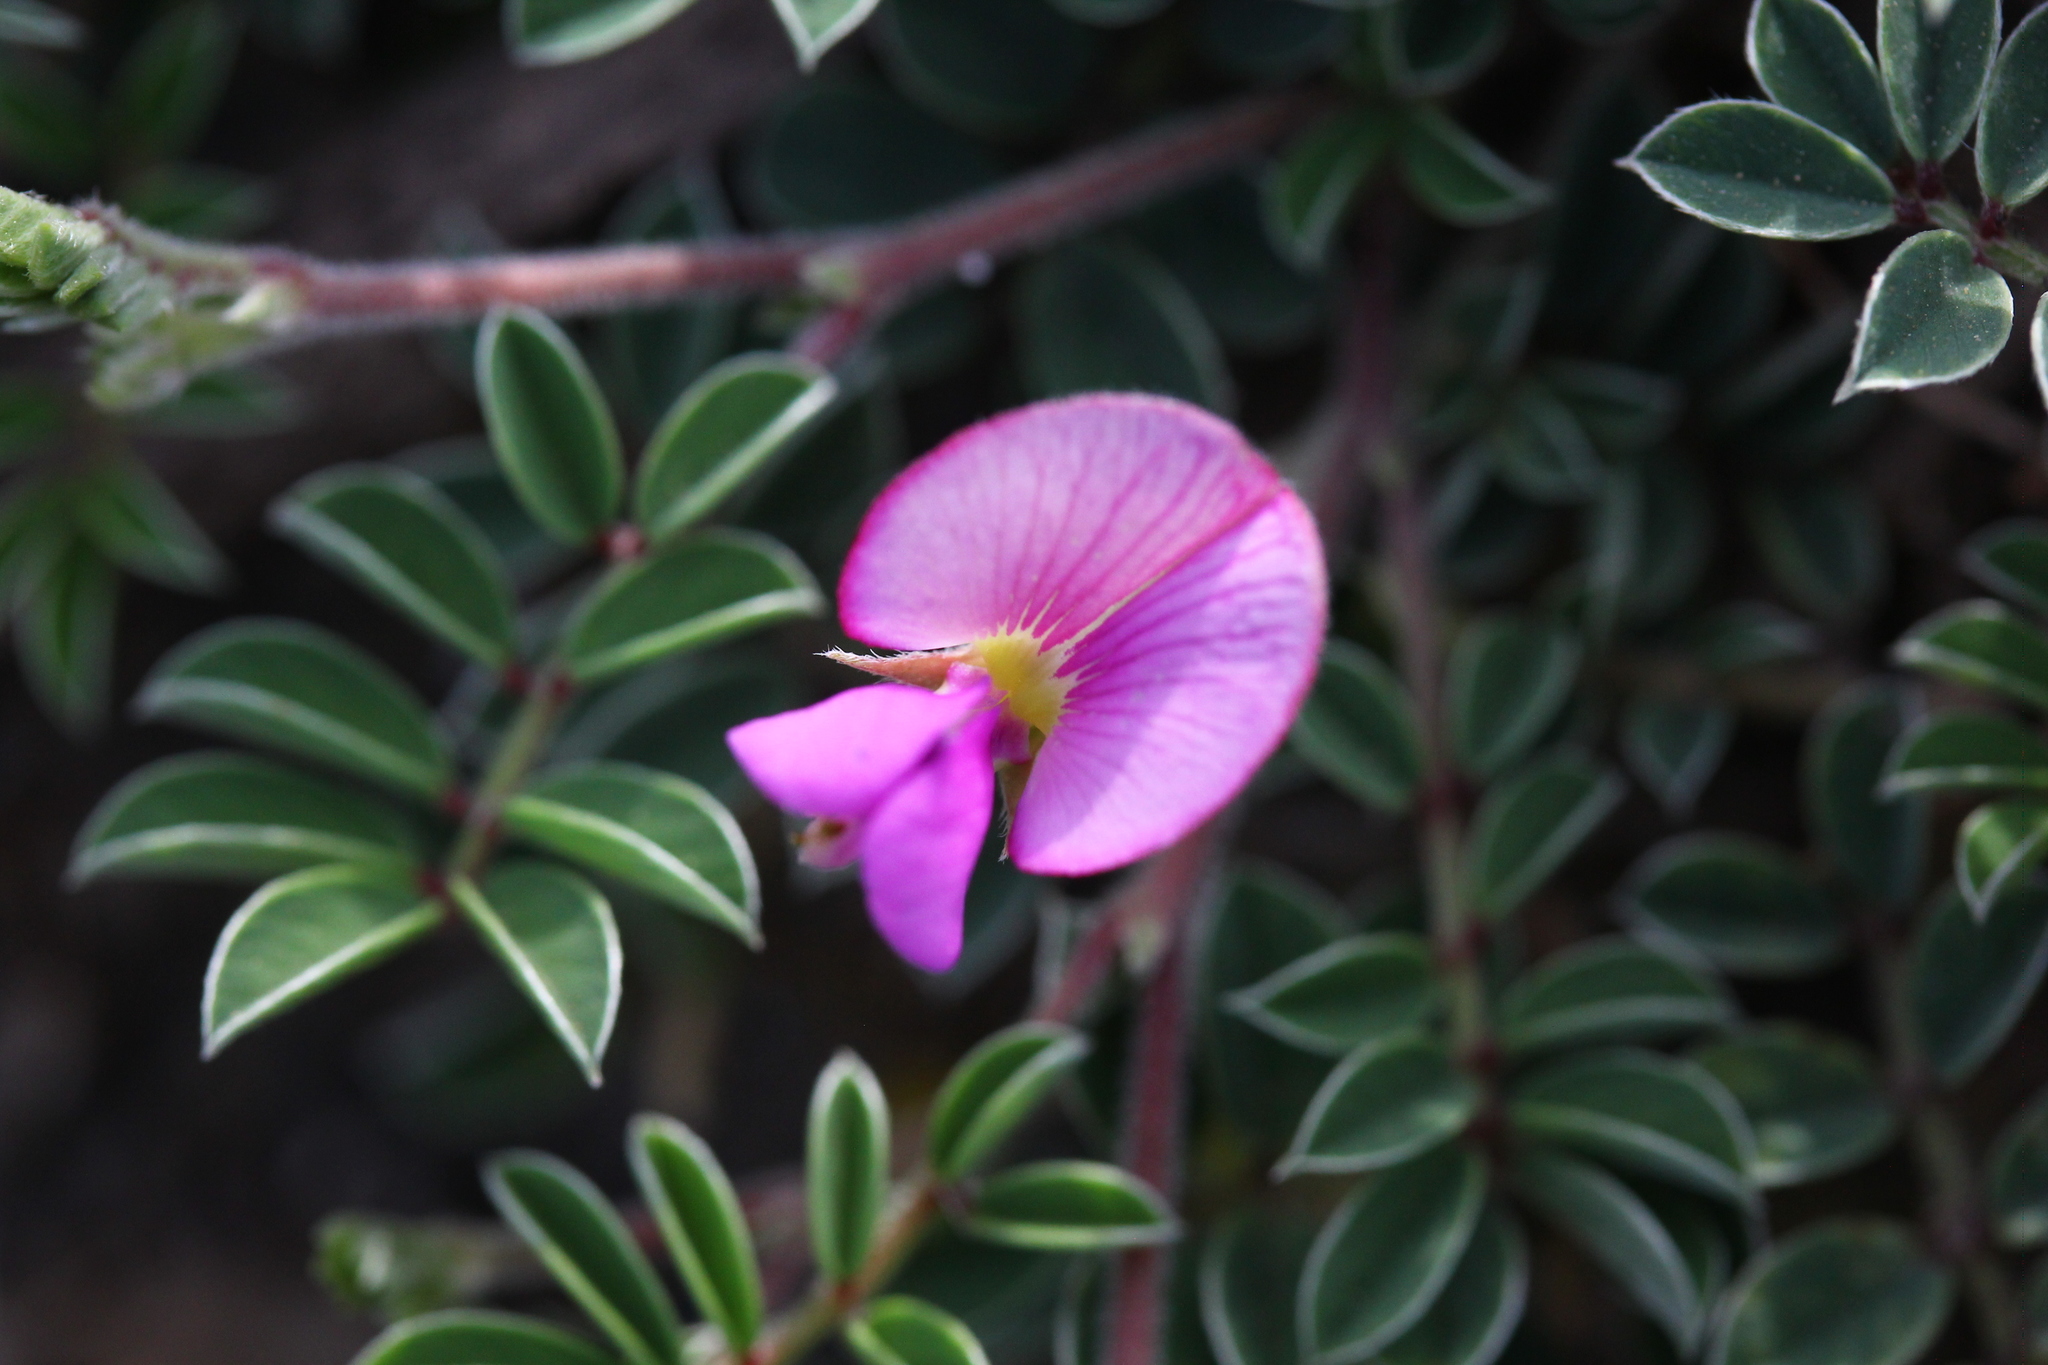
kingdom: Plantae
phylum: Tracheophyta
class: Magnoliopsida
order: Fabales
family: Fabaceae
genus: Tephrosia
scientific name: Tephrosia obovata
